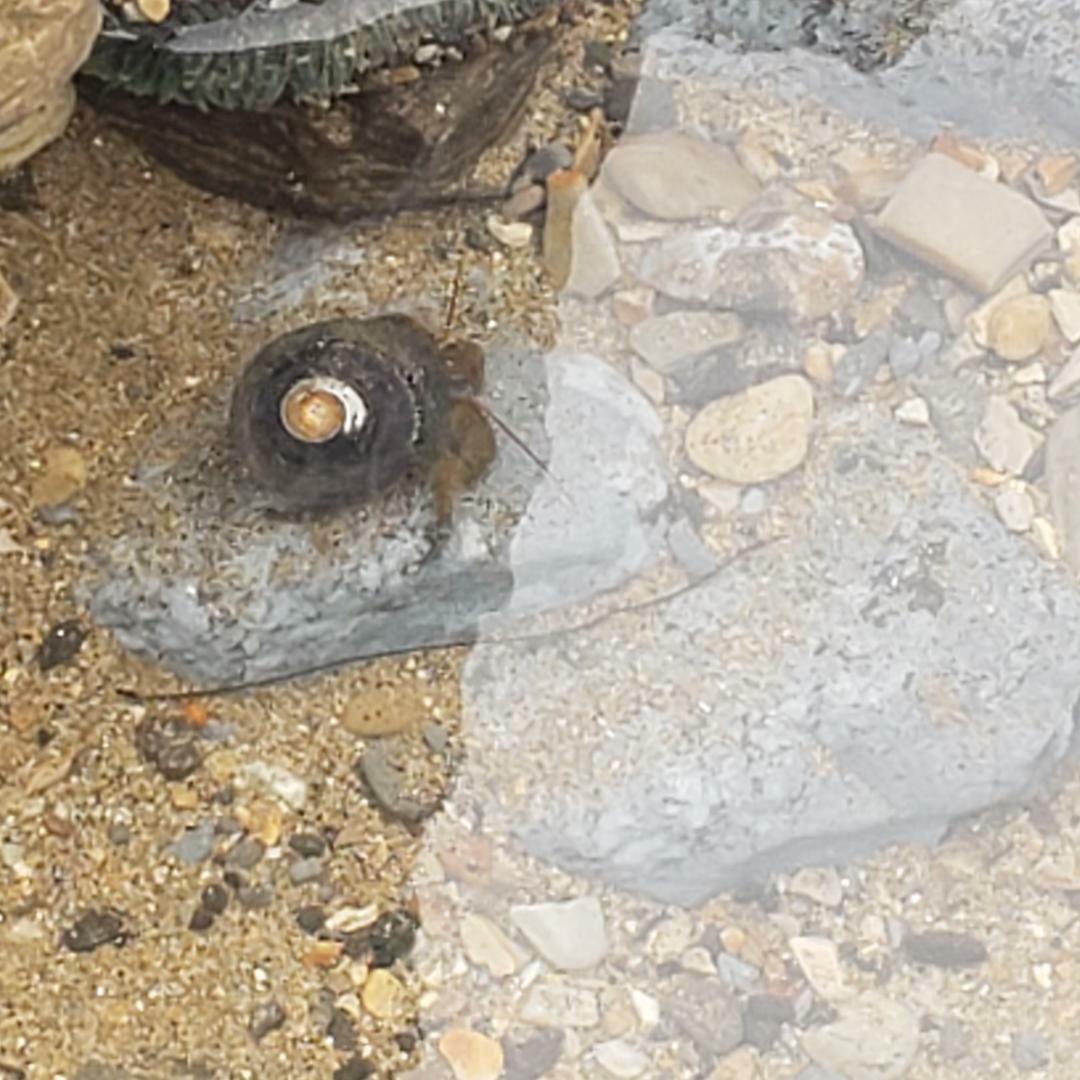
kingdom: Animalia
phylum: Arthropoda
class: Malacostraca
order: Decapoda
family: Paguridae
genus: Pagurus
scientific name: Pagurus samuelis
